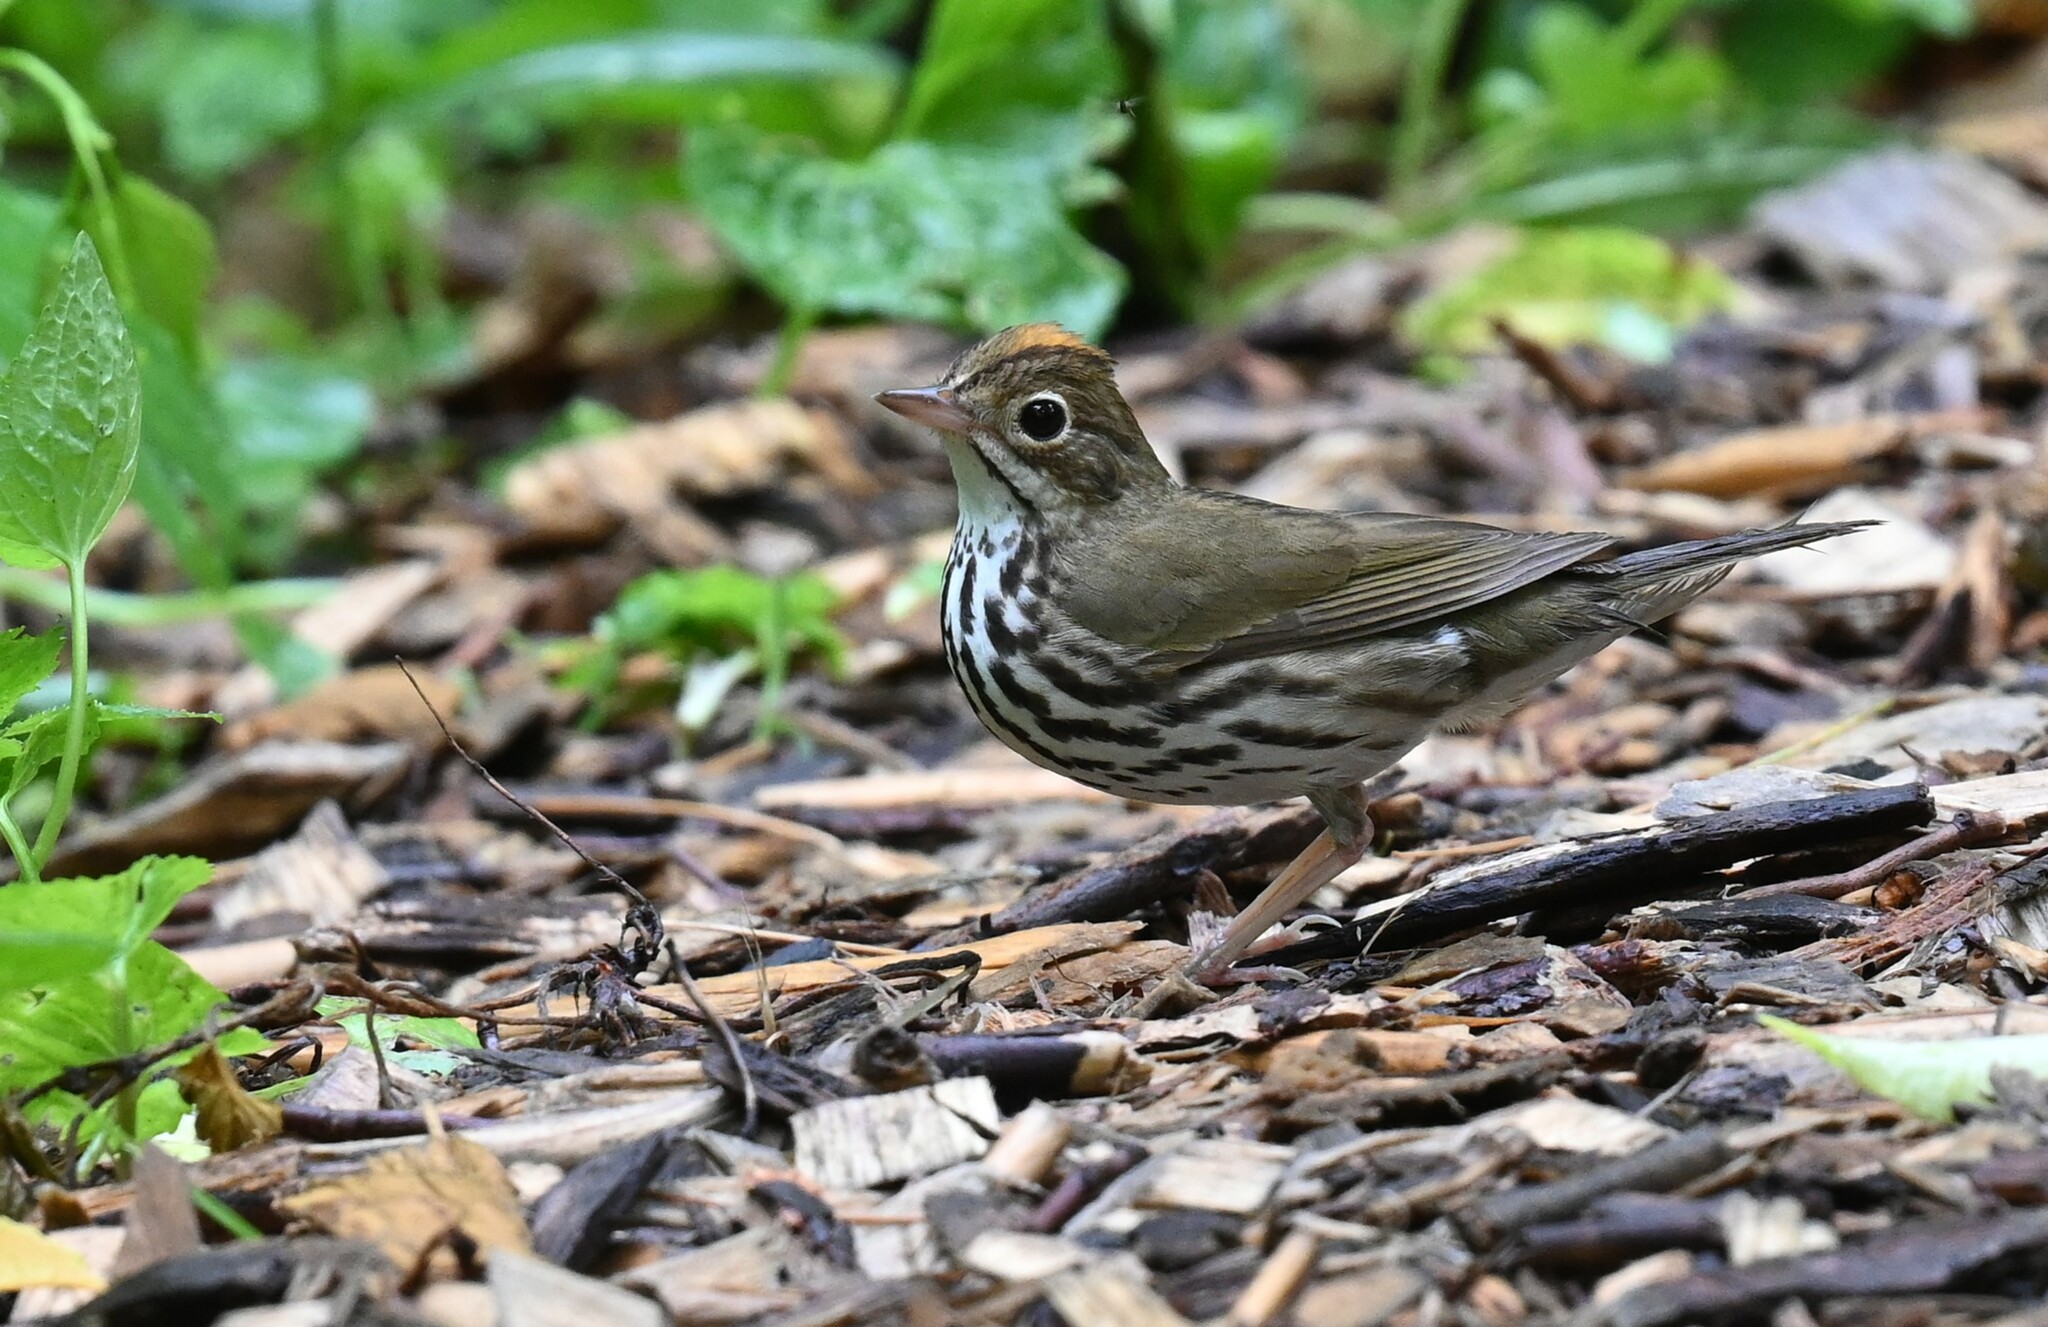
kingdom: Animalia
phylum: Chordata
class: Aves
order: Passeriformes
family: Parulidae
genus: Seiurus
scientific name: Seiurus aurocapilla
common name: Ovenbird
